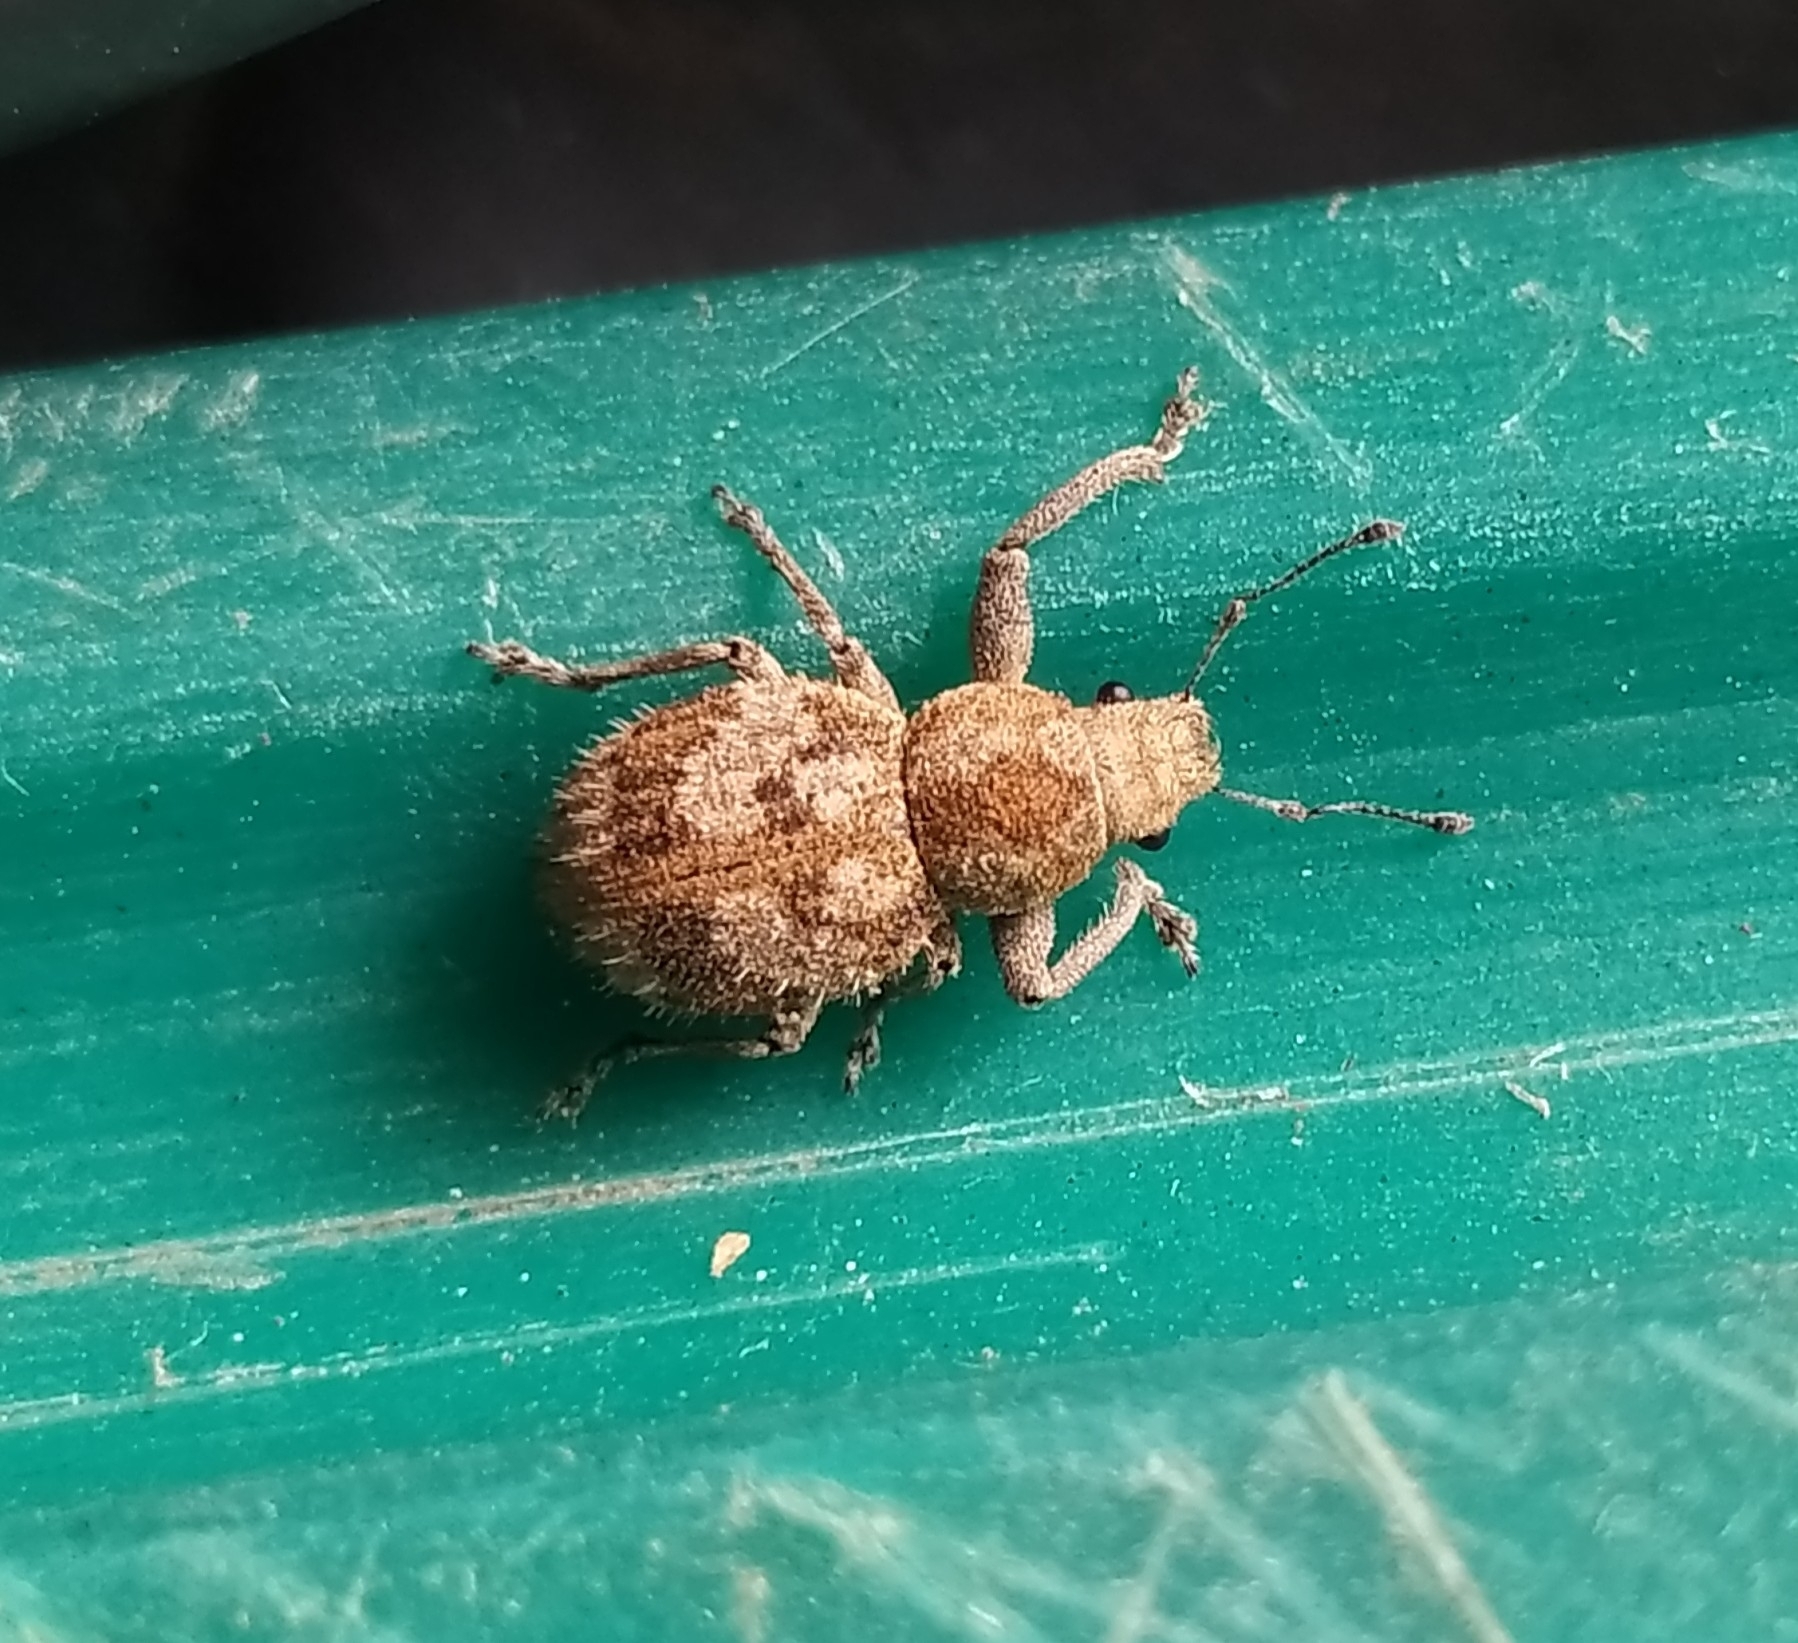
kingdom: Animalia
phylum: Arthropoda
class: Insecta
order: Coleoptera
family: Curculionidae
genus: Pantomorus
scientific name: Pantomorus
